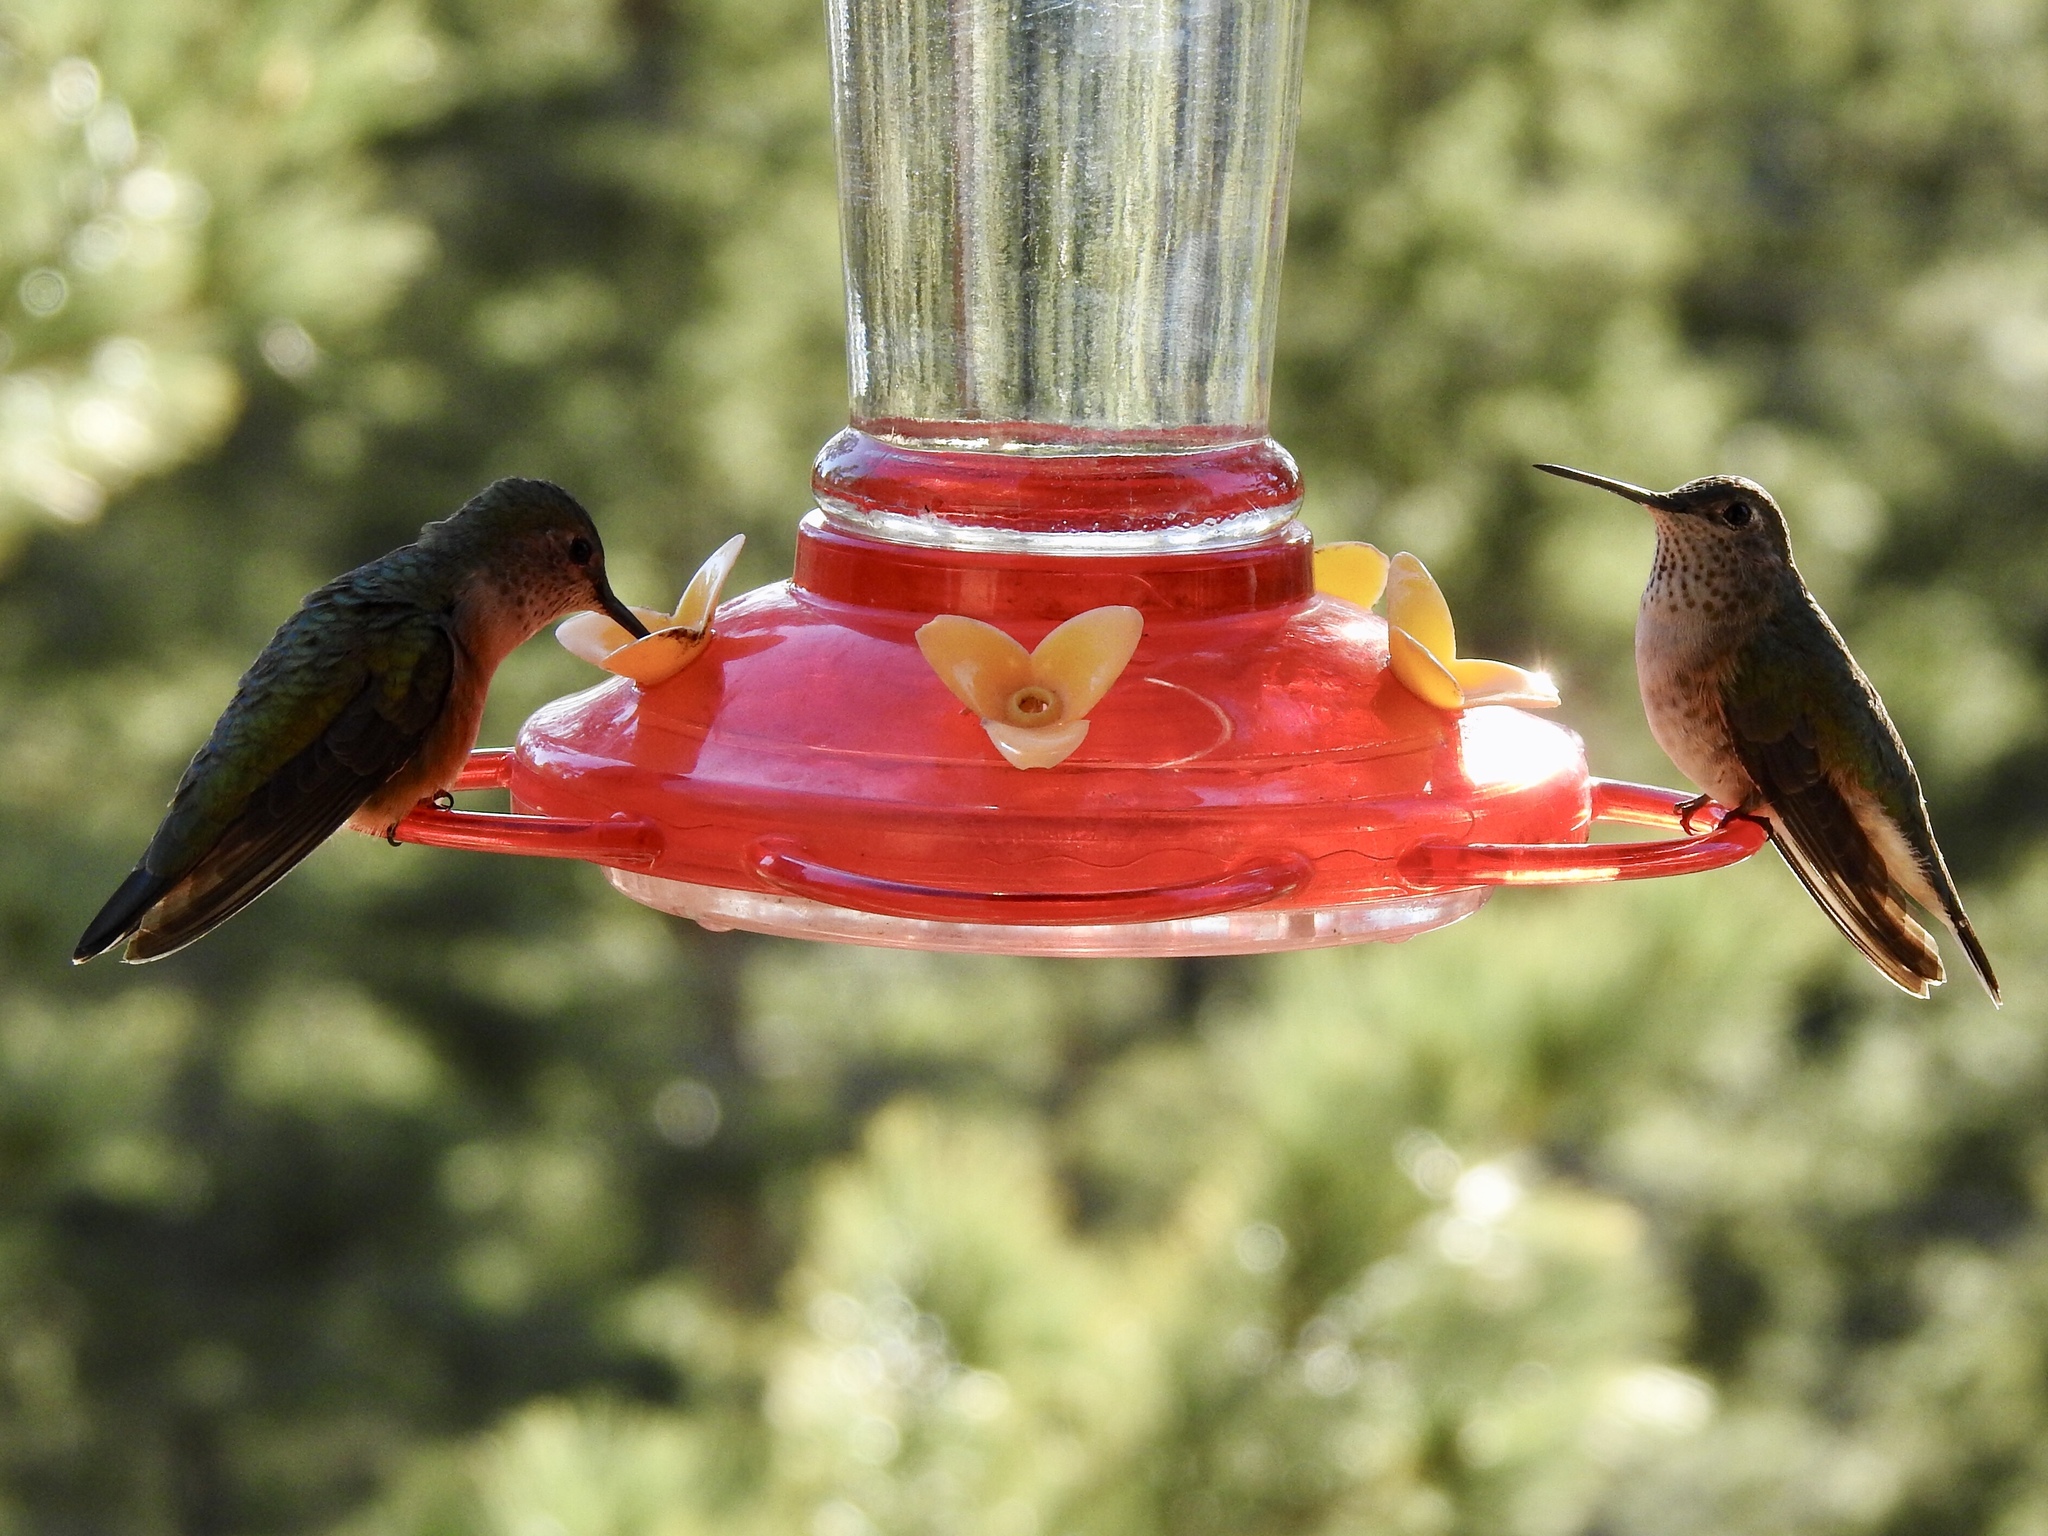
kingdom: Animalia
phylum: Chordata
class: Aves
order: Apodiformes
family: Trochilidae
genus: Selasphorus
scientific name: Selasphorus platycercus
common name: Broad-tailed hummingbird
